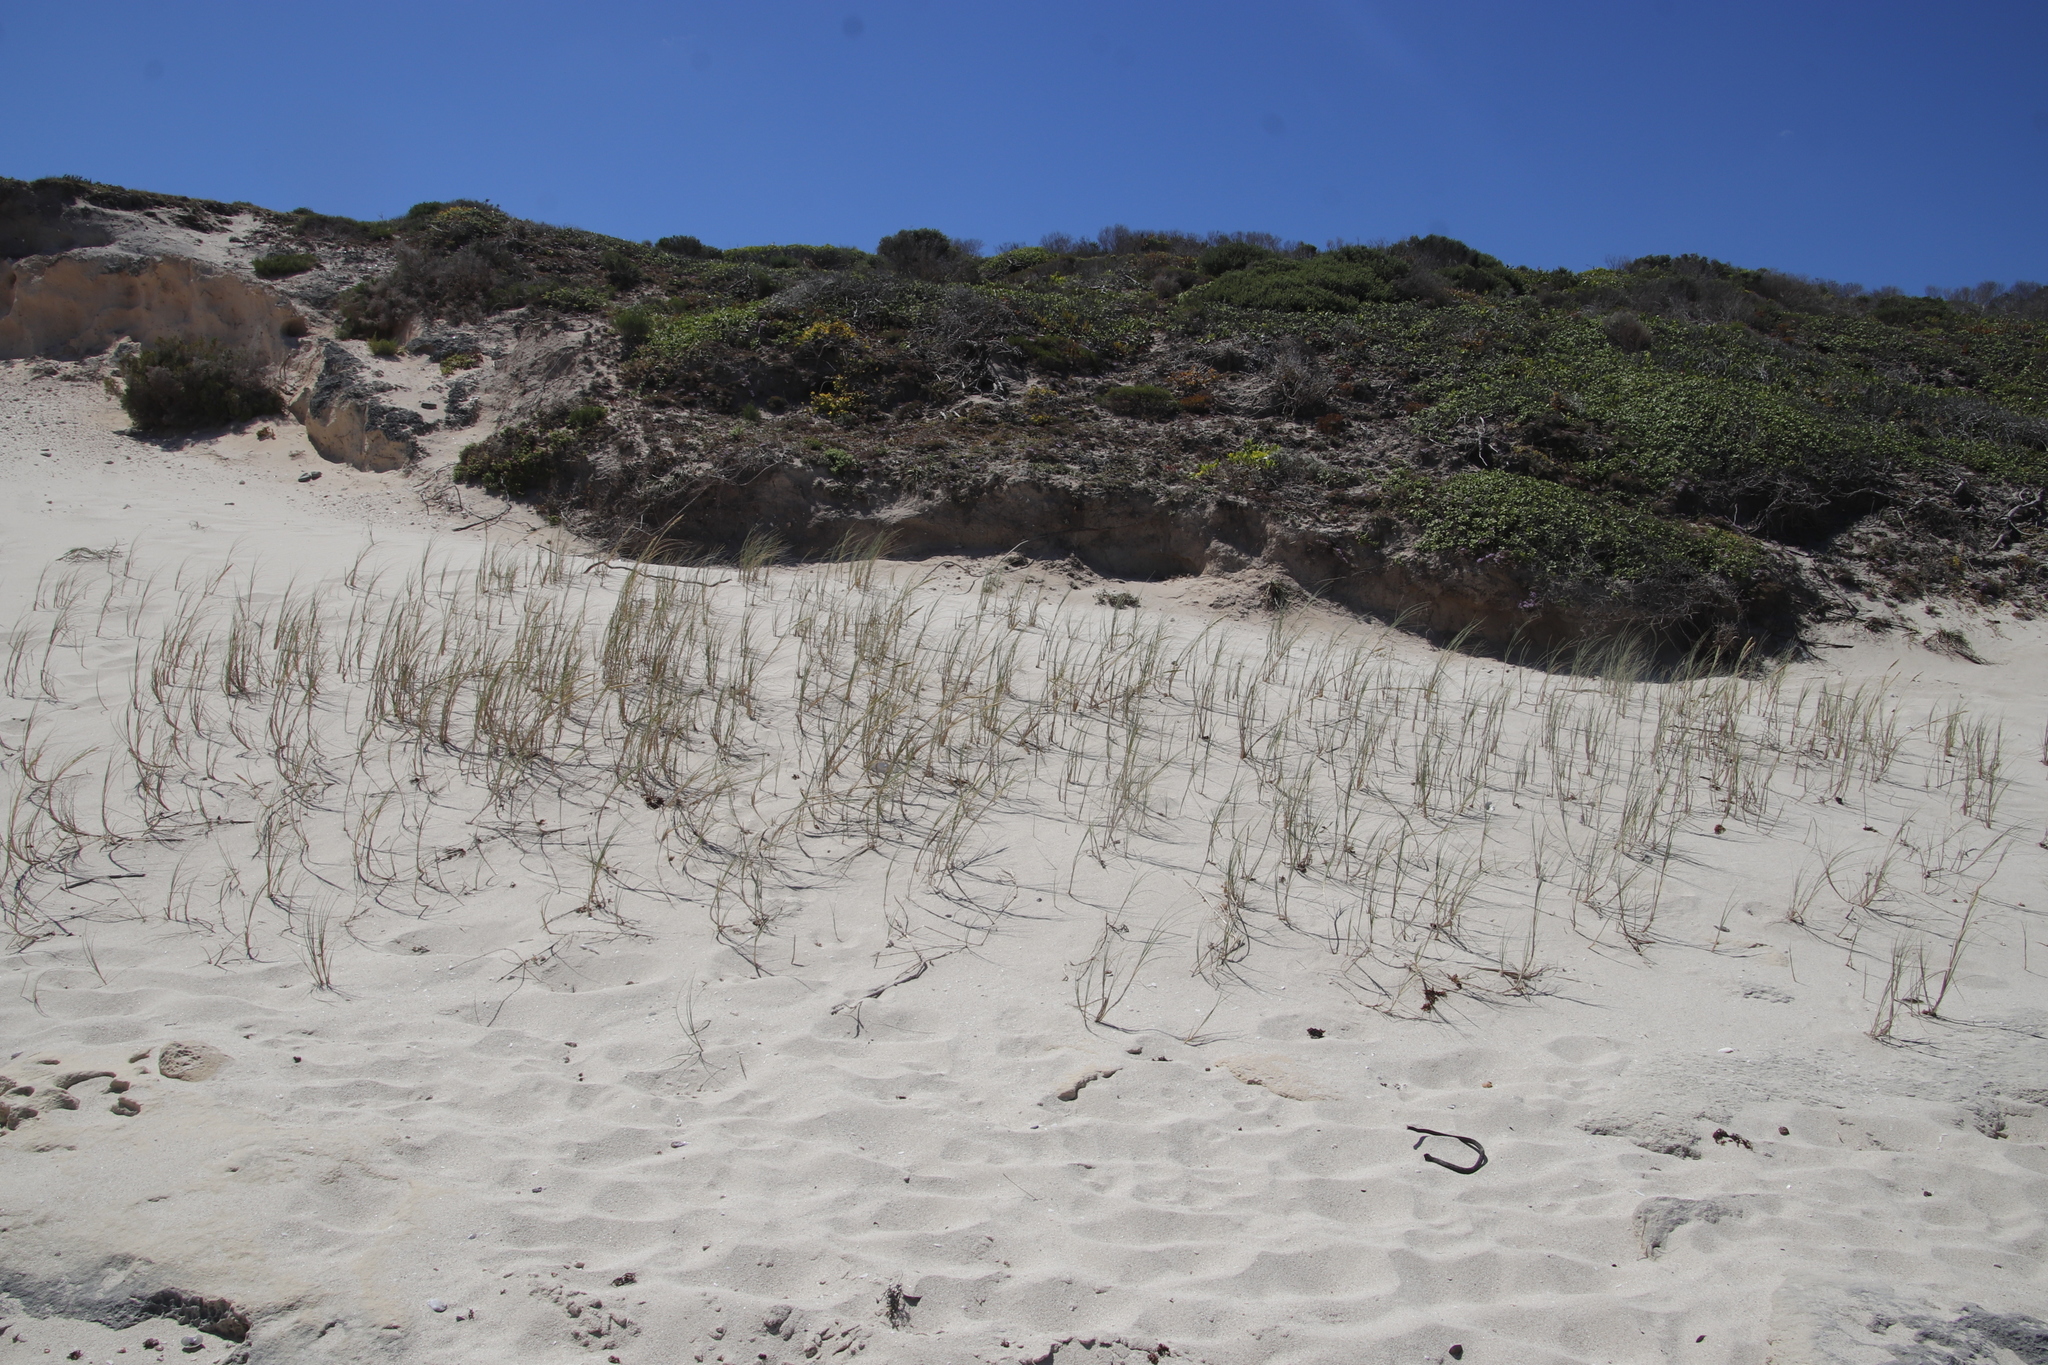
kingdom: Plantae
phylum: Tracheophyta
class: Liliopsida
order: Poales
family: Poaceae
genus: Thinopyrum
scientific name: Thinopyrum distichum
